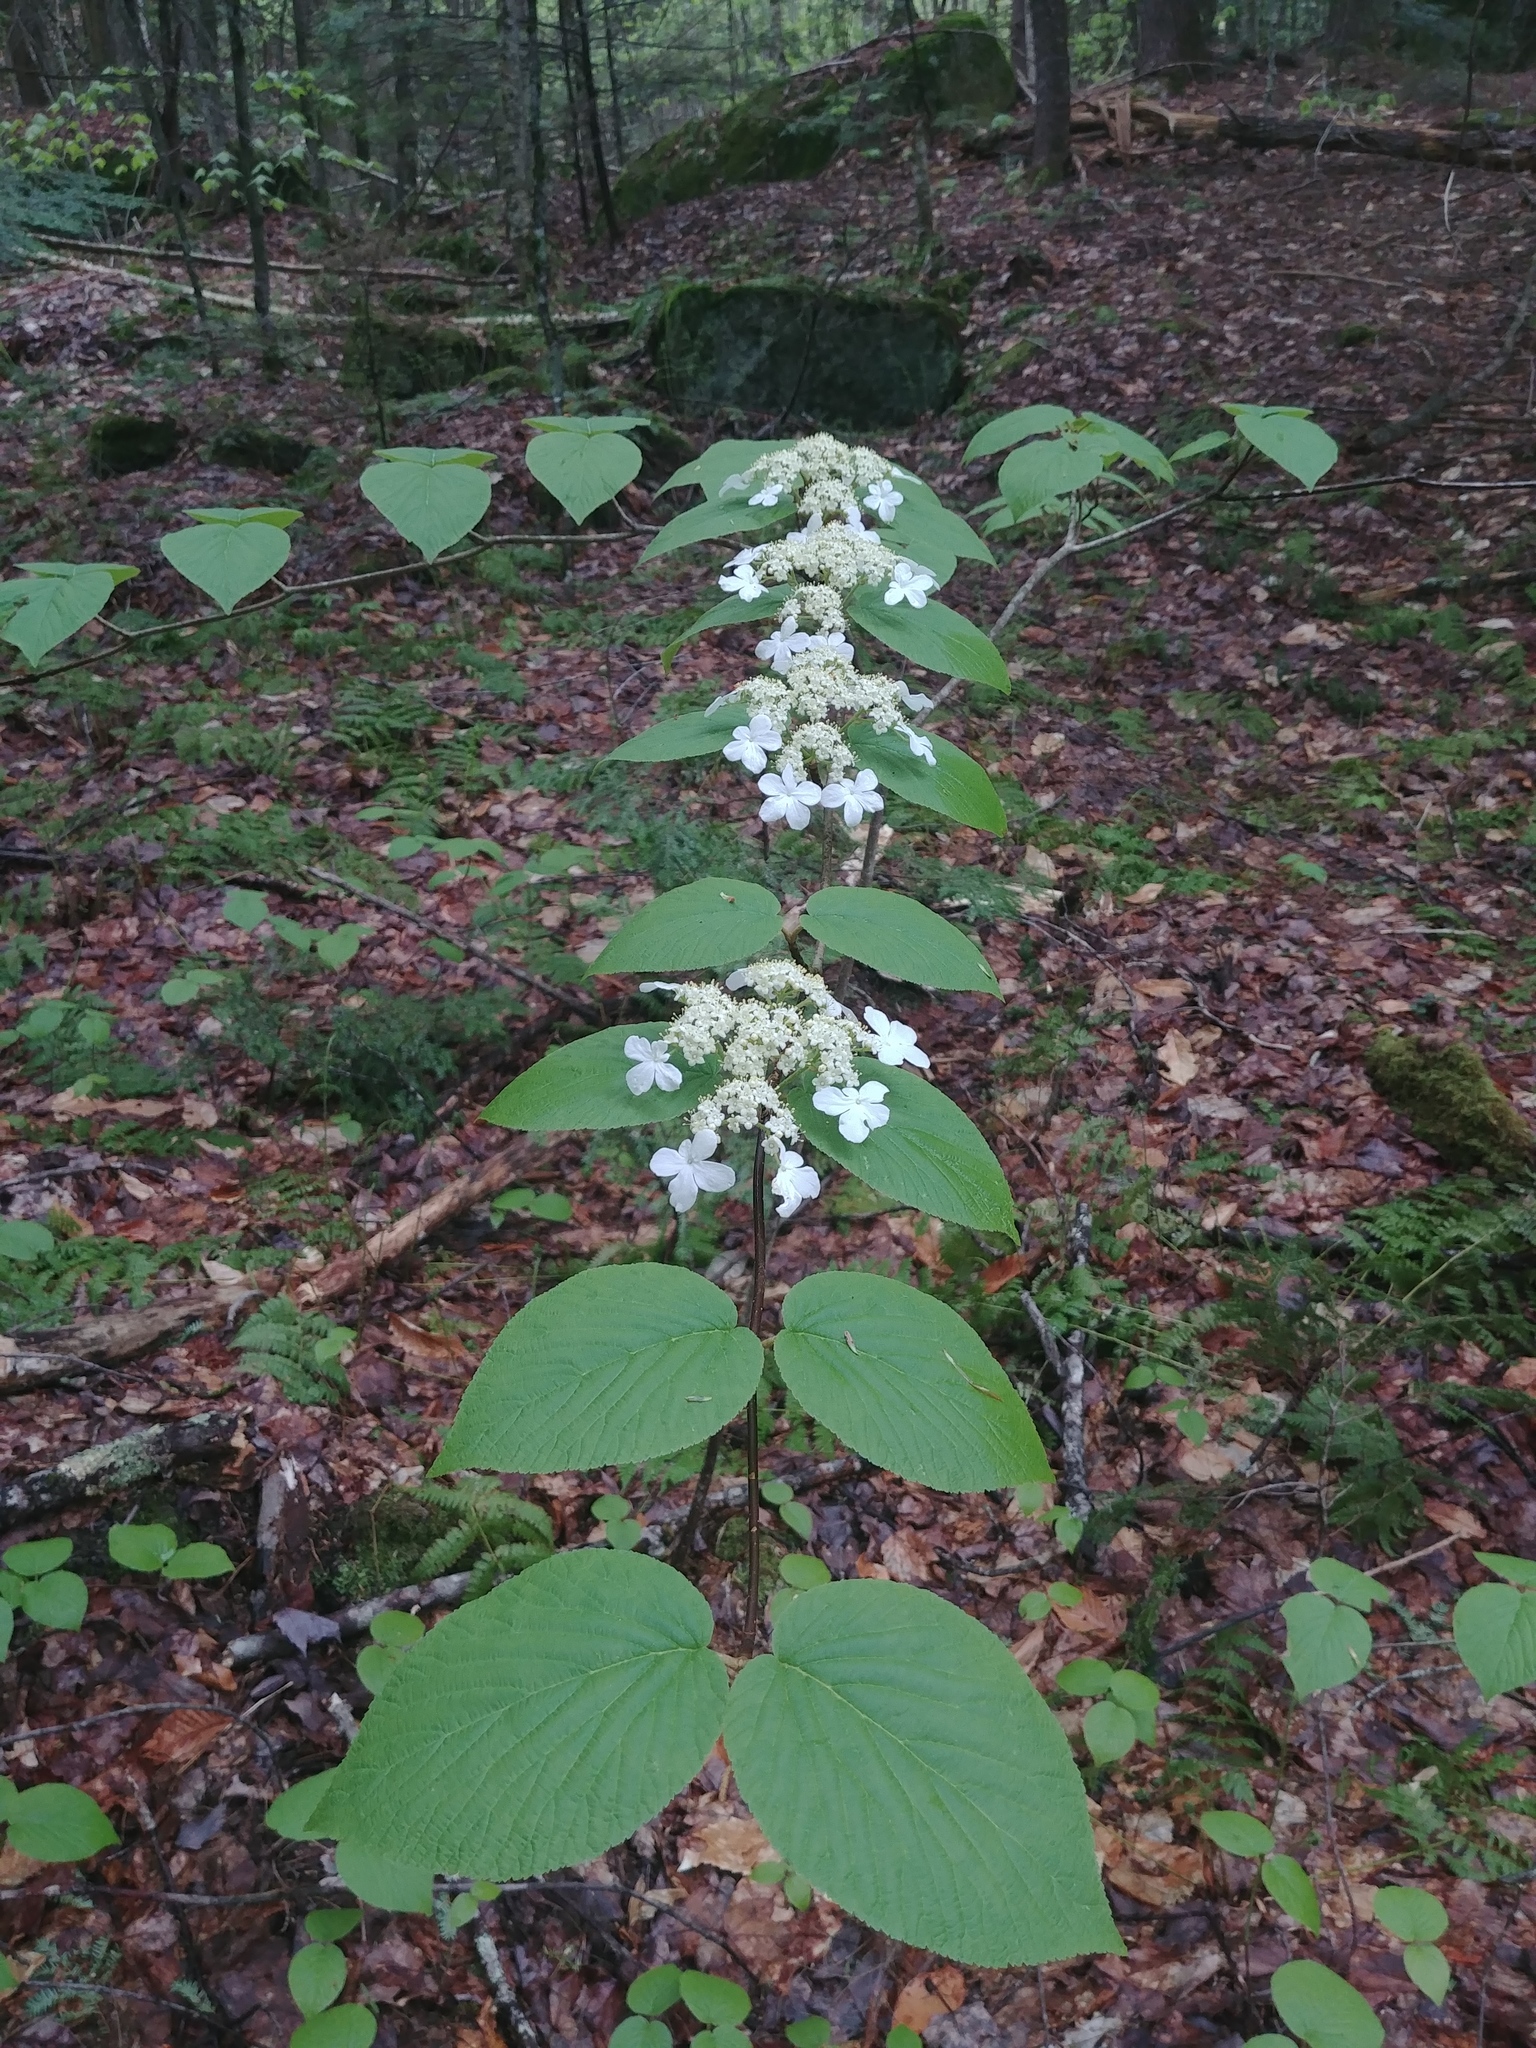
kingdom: Plantae
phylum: Tracheophyta
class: Magnoliopsida
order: Dipsacales
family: Viburnaceae
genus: Viburnum
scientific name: Viburnum lantanoides
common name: Hobblebush
